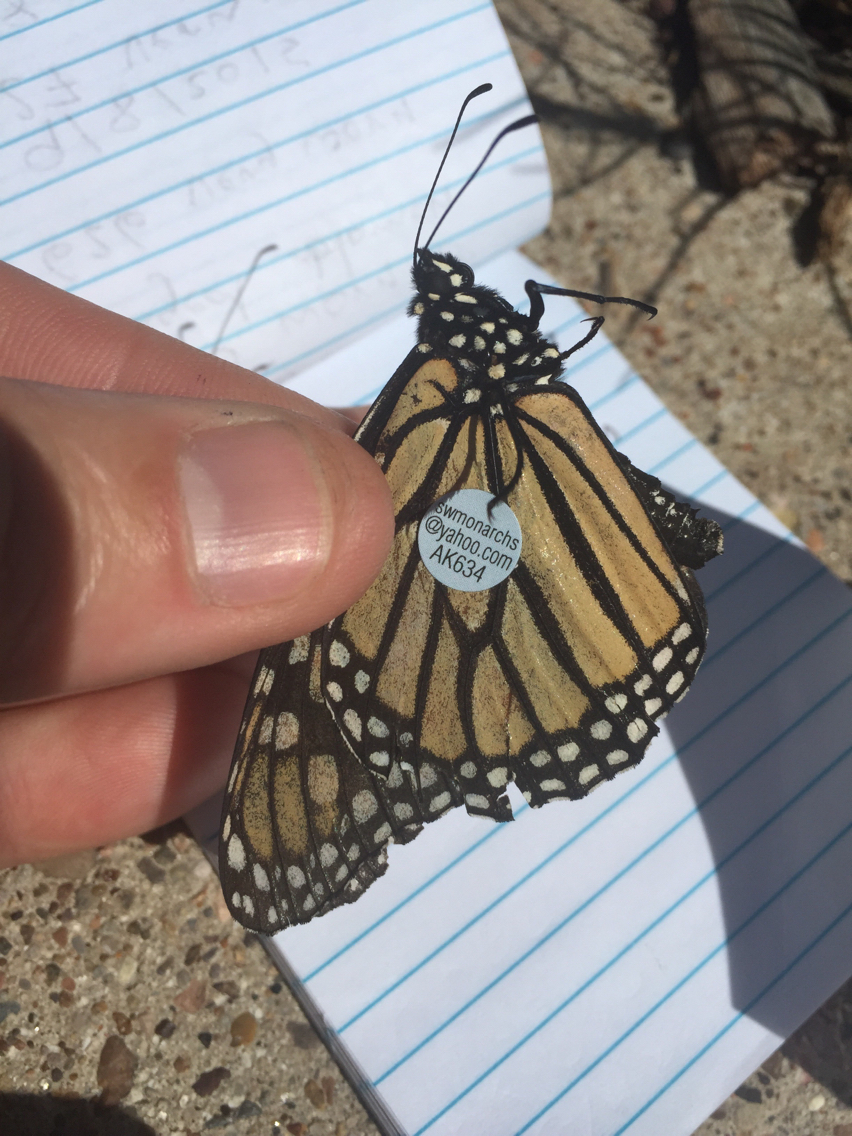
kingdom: Animalia
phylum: Arthropoda
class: Insecta
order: Lepidoptera
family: Nymphalidae
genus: Danaus
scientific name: Danaus plexippus
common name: Monarch
